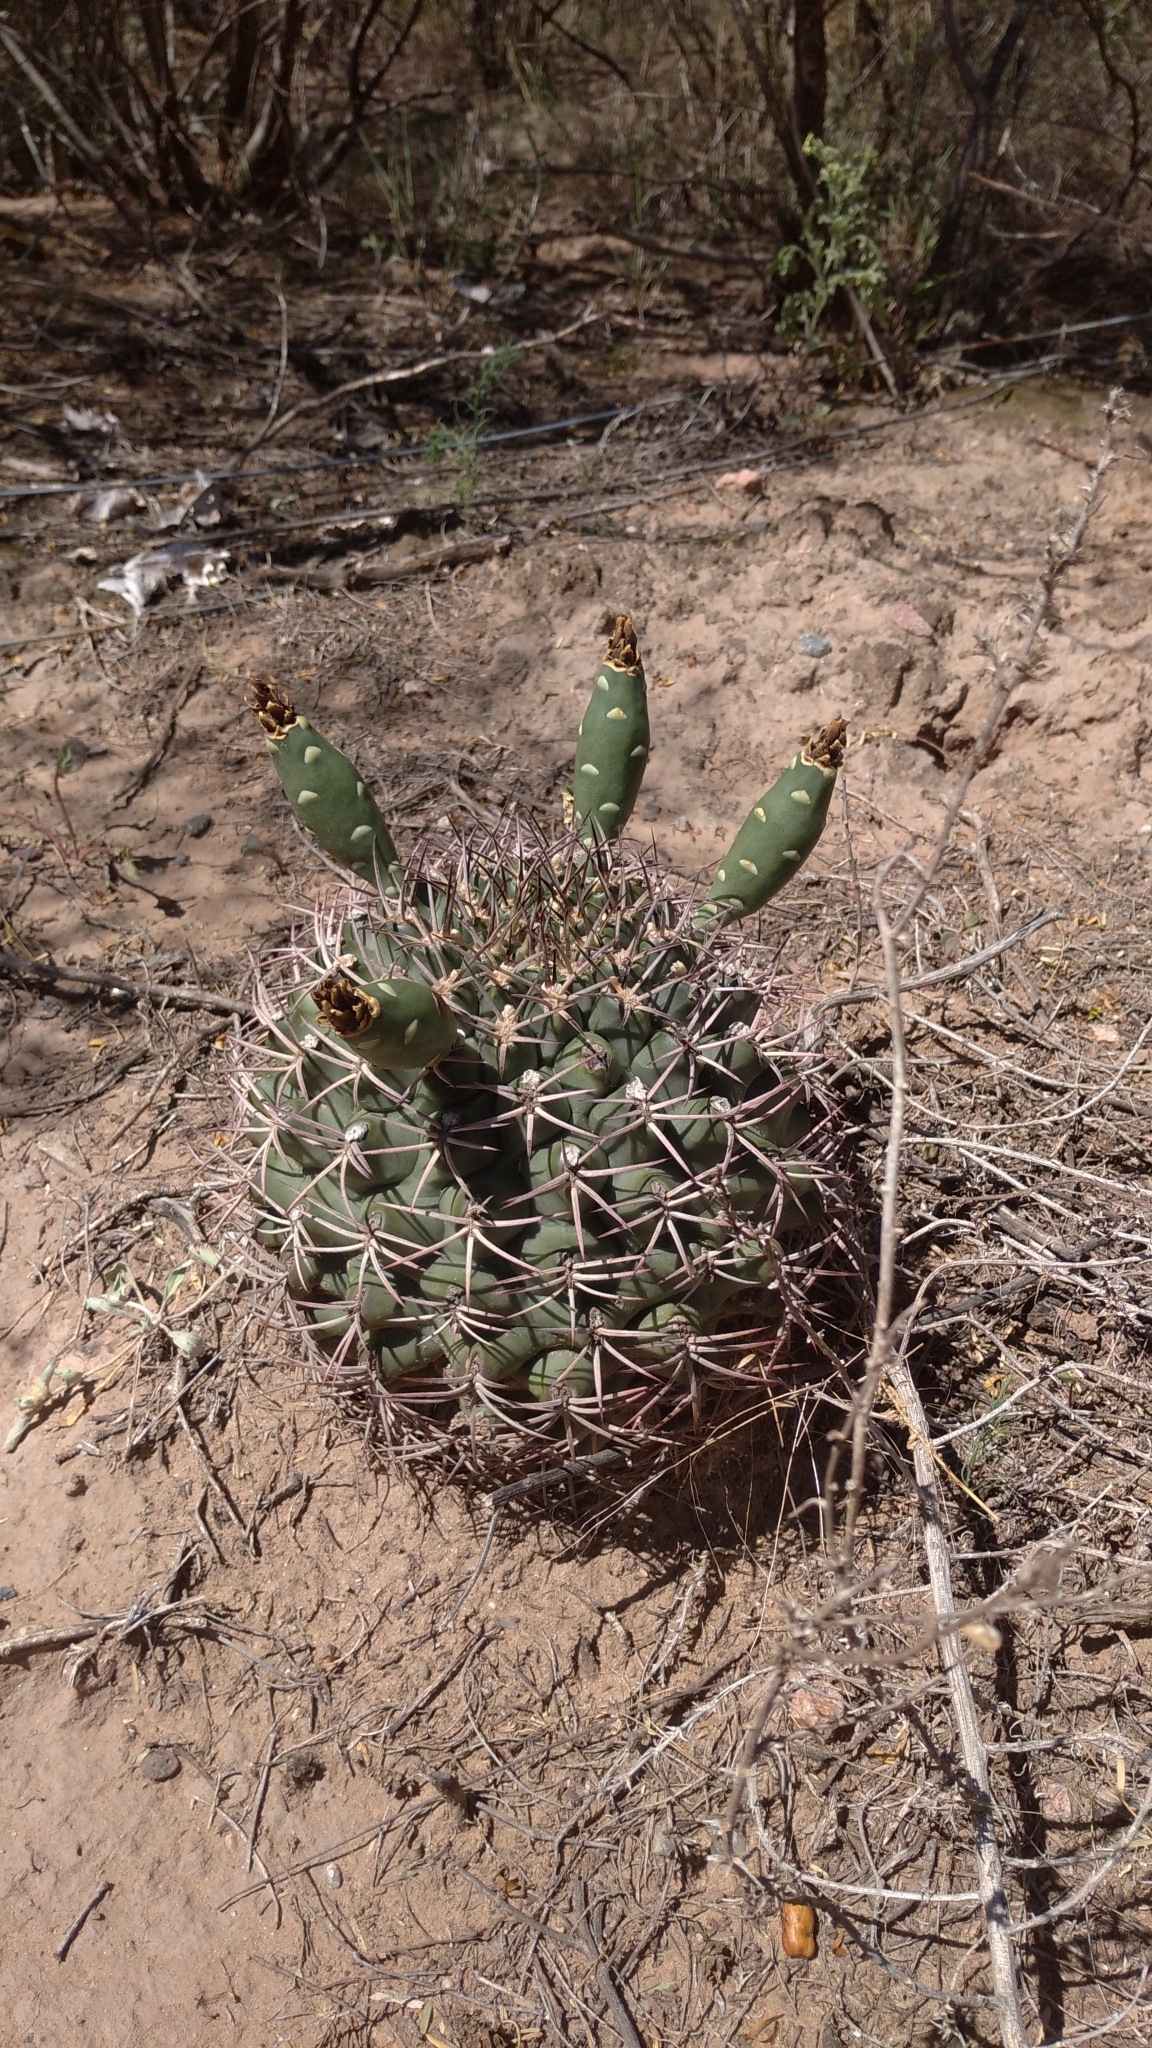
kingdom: Plantae
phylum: Tracheophyta
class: Magnoliopsida
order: Caryophyllales
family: Cactaceae
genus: Gymnocalycium
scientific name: Gymnocalycium schickendantzii
